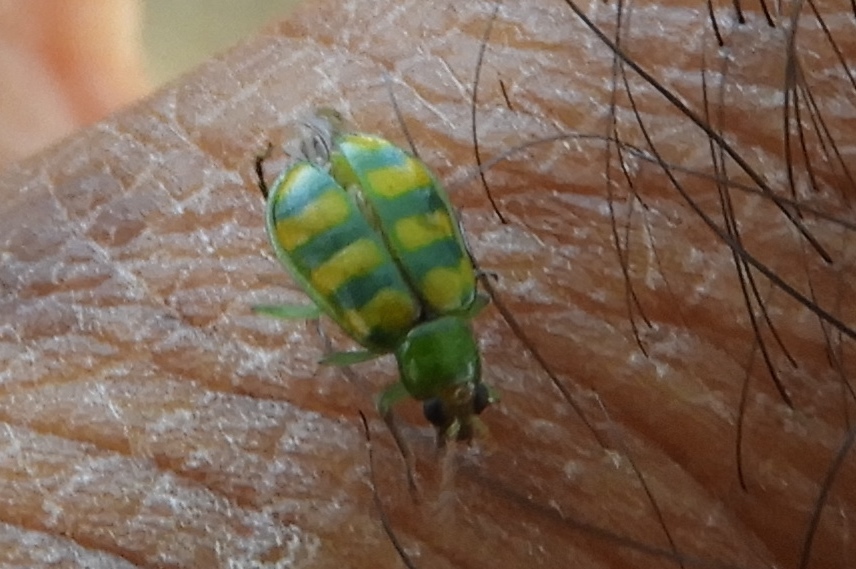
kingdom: Animalia
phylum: Arthropoda
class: Insecta
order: Coleoptera
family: Chrysomelidae
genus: Diabrotica
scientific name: Diabrotica balteata
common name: Leaf beetle
